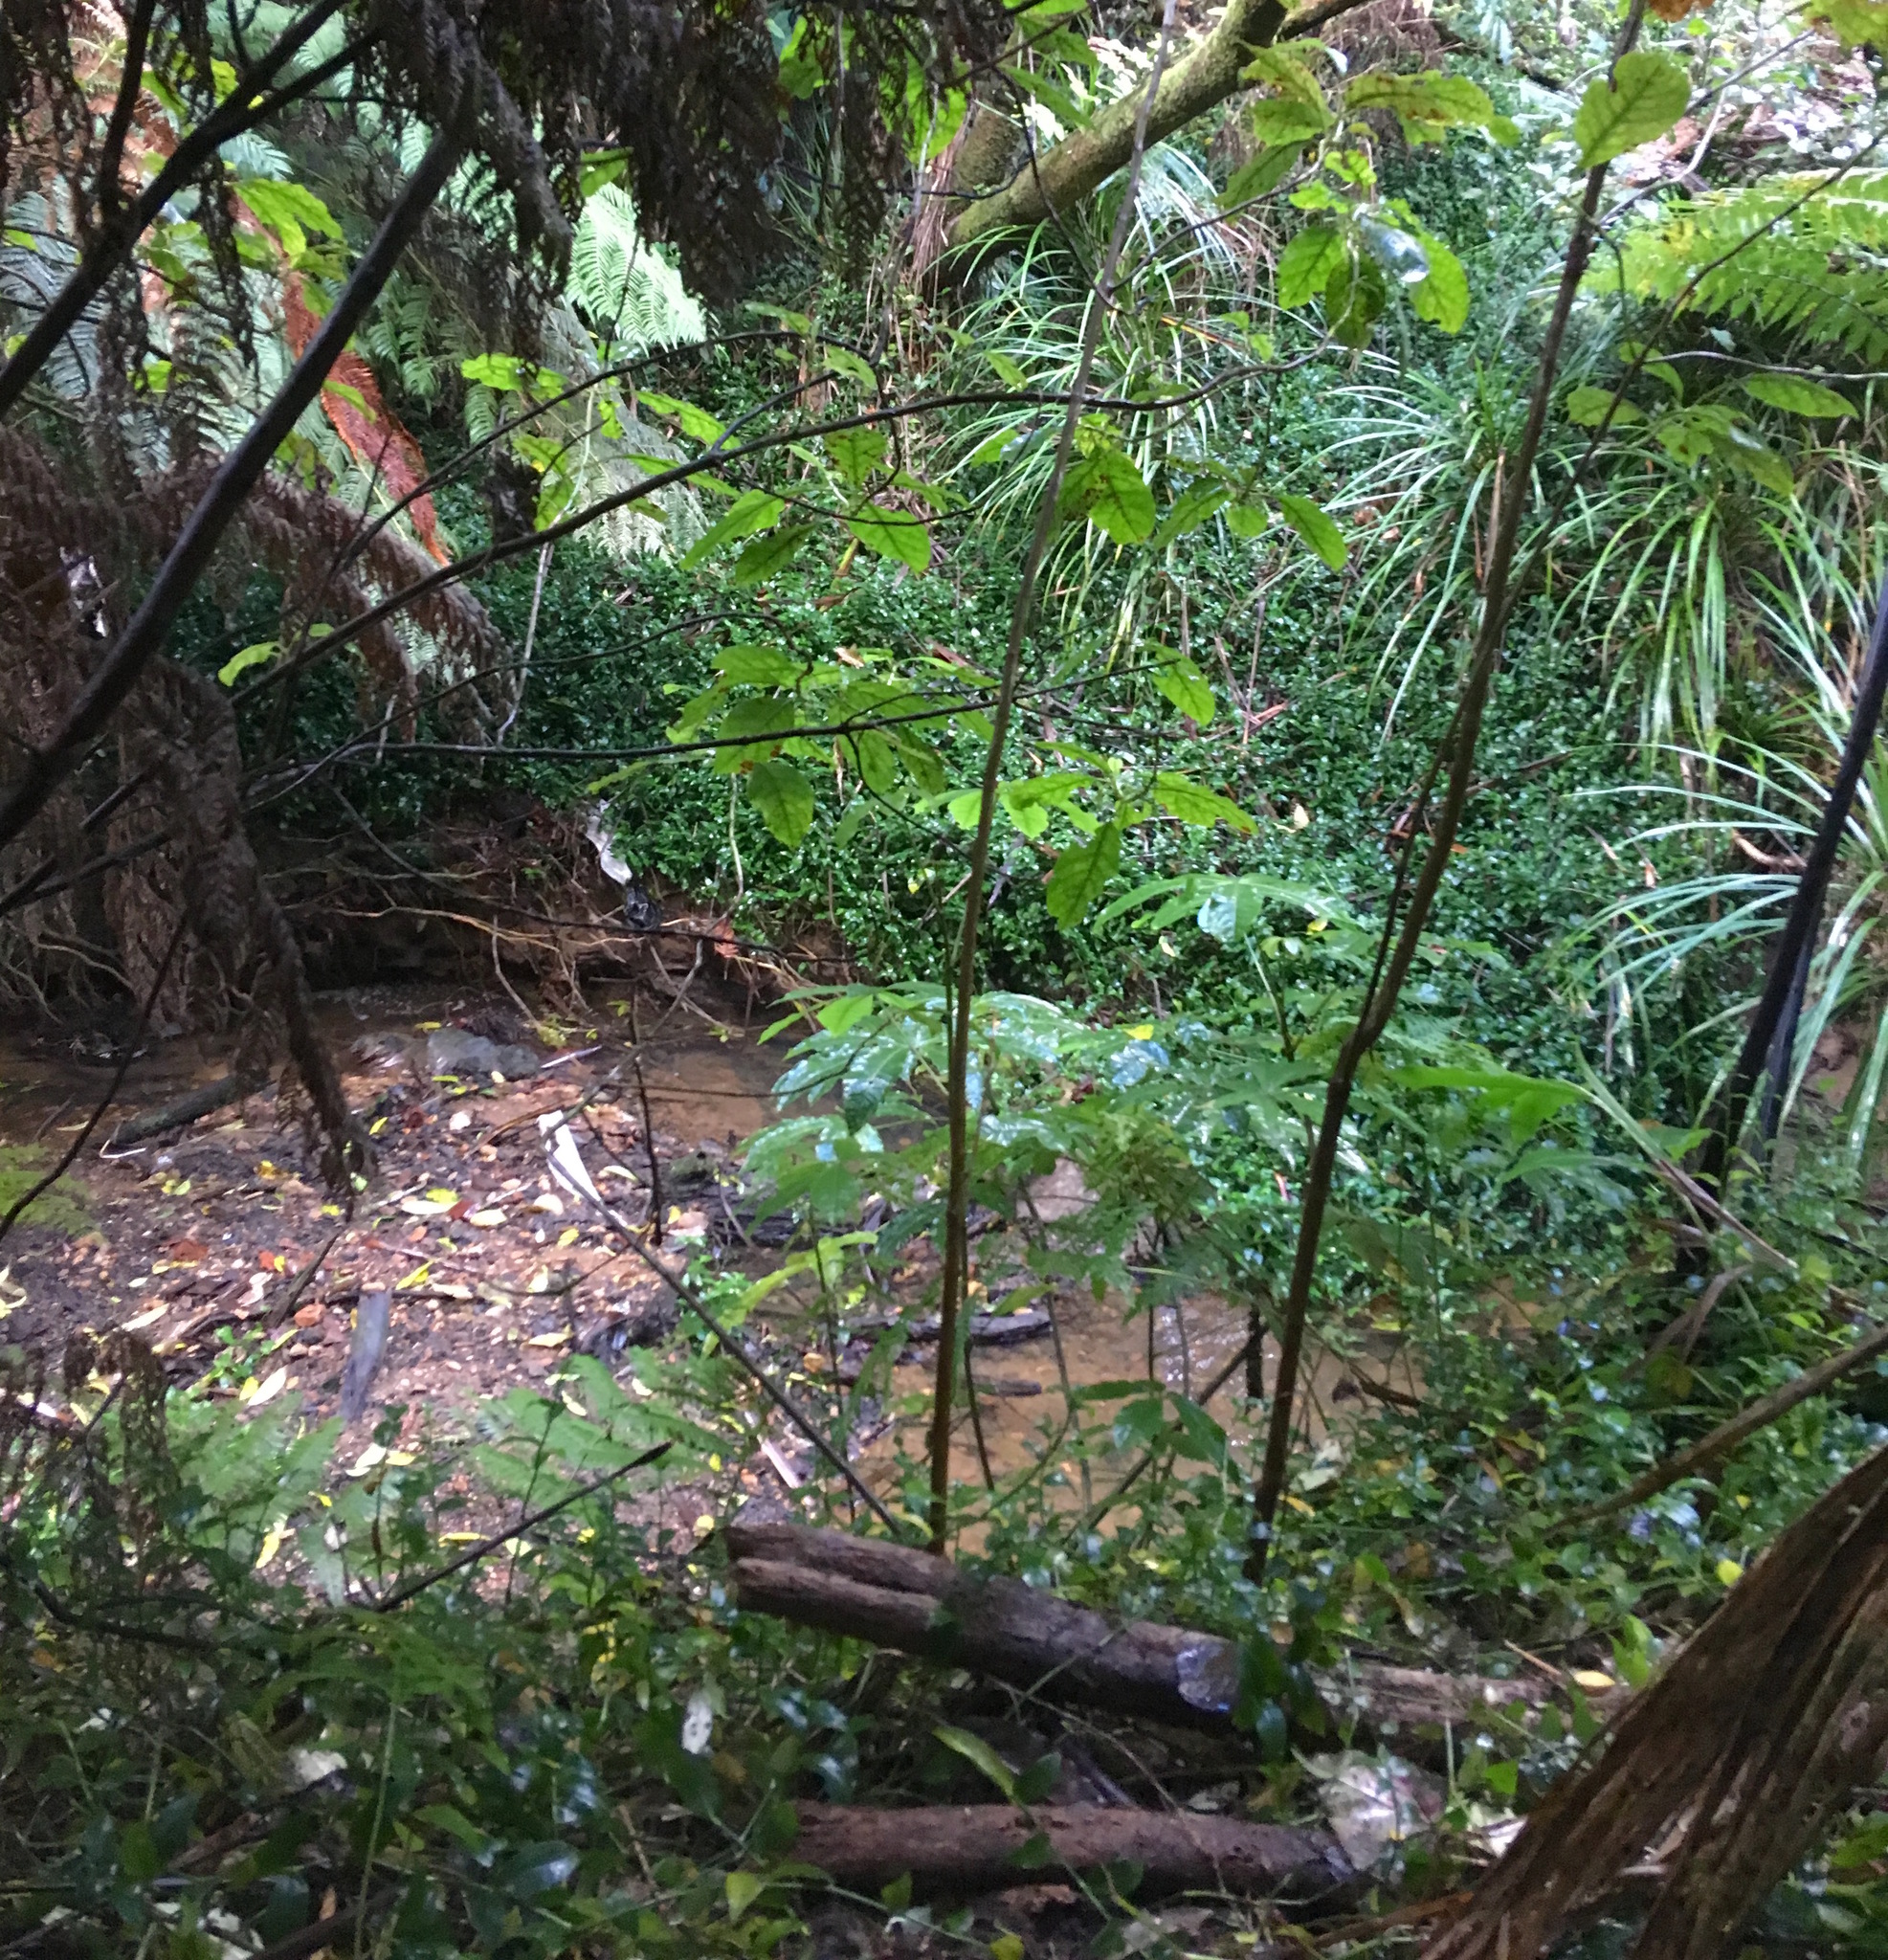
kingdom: Plantae
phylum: Tracheophyta
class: Liliopsida
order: Commelinales
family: Commelinaceae
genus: Tradescantia
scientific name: Tradescantia fluminensis
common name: Wandering-jew
